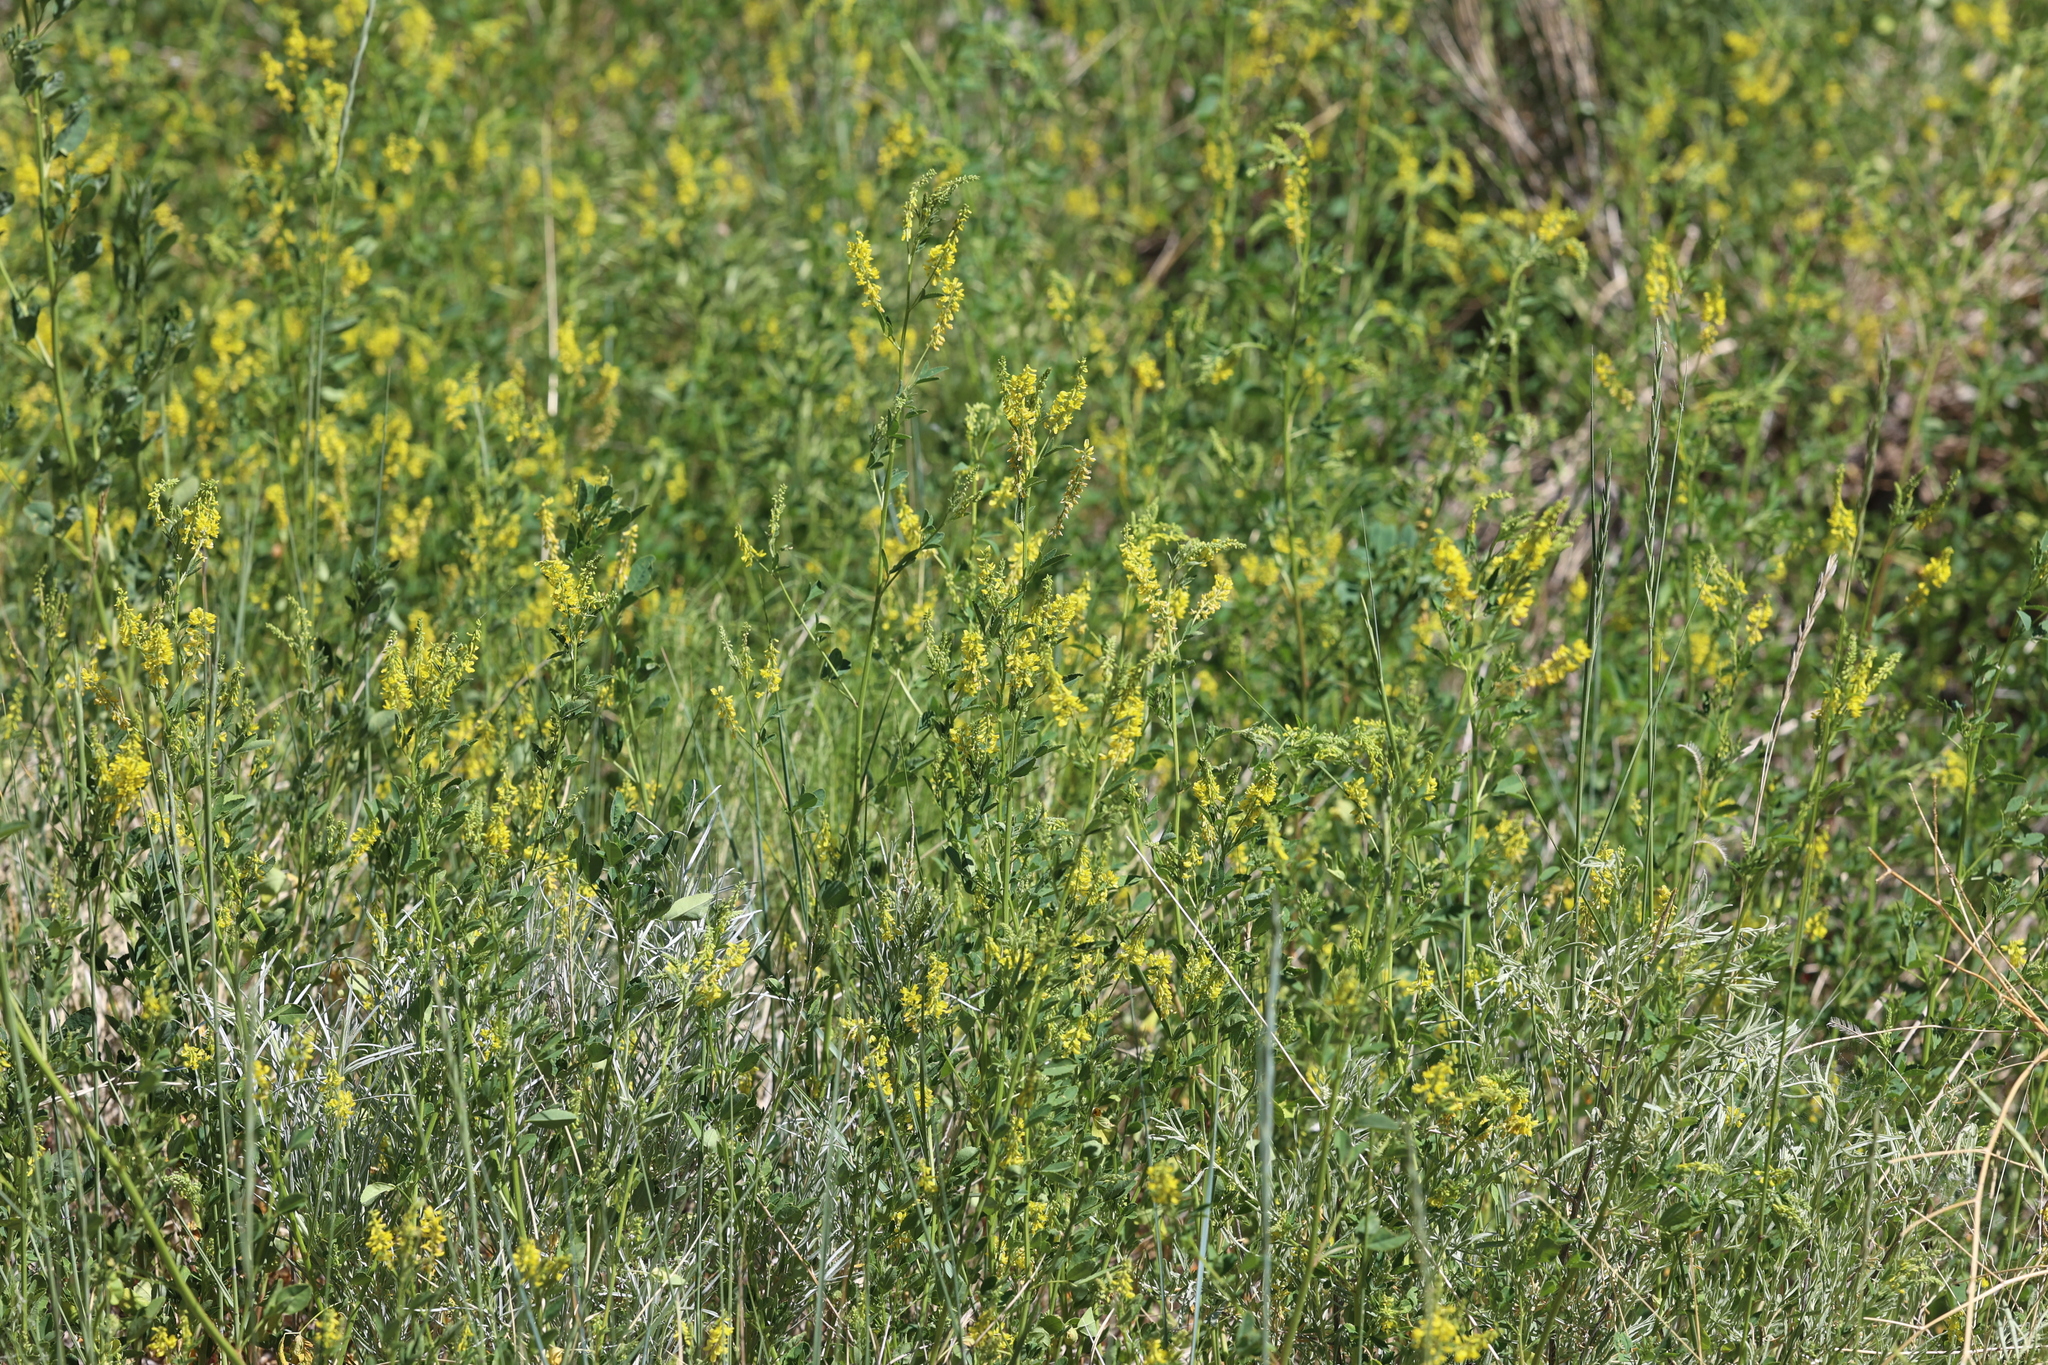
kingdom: Plantae
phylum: Tracheophyta
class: Magnoliopsida
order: Fabales
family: Fabaceae
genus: Melilotus
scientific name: Melilotus officinalis
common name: Sweetclover
